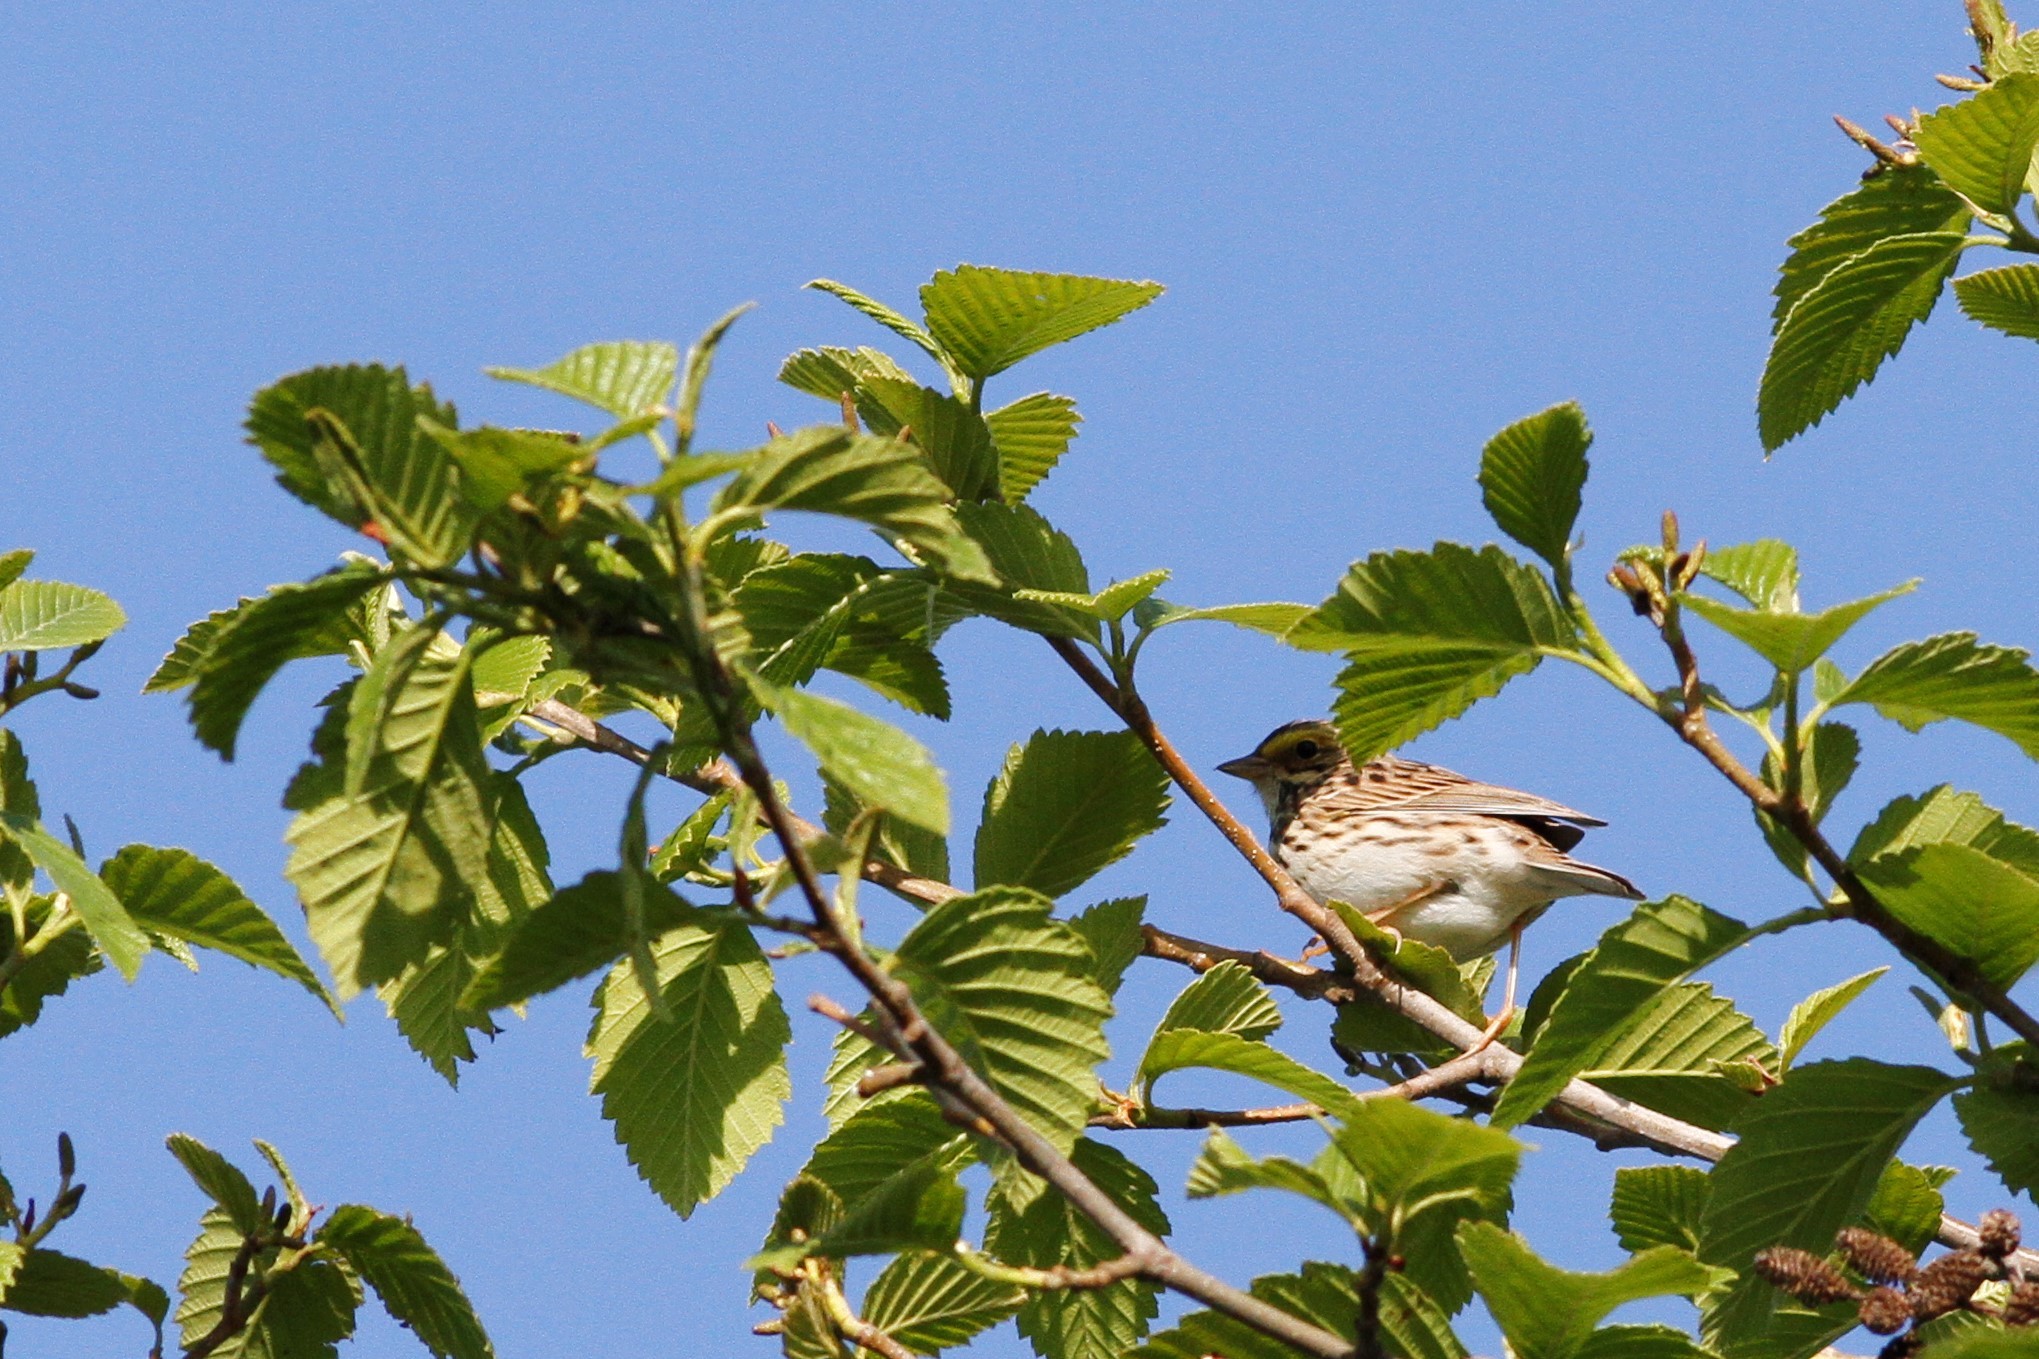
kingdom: Animalia
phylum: Chordata
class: Aves
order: Passeriformes
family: Passerellidae
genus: Passerculus
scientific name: Passerculus sandwichensis
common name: Savannah sparrow
